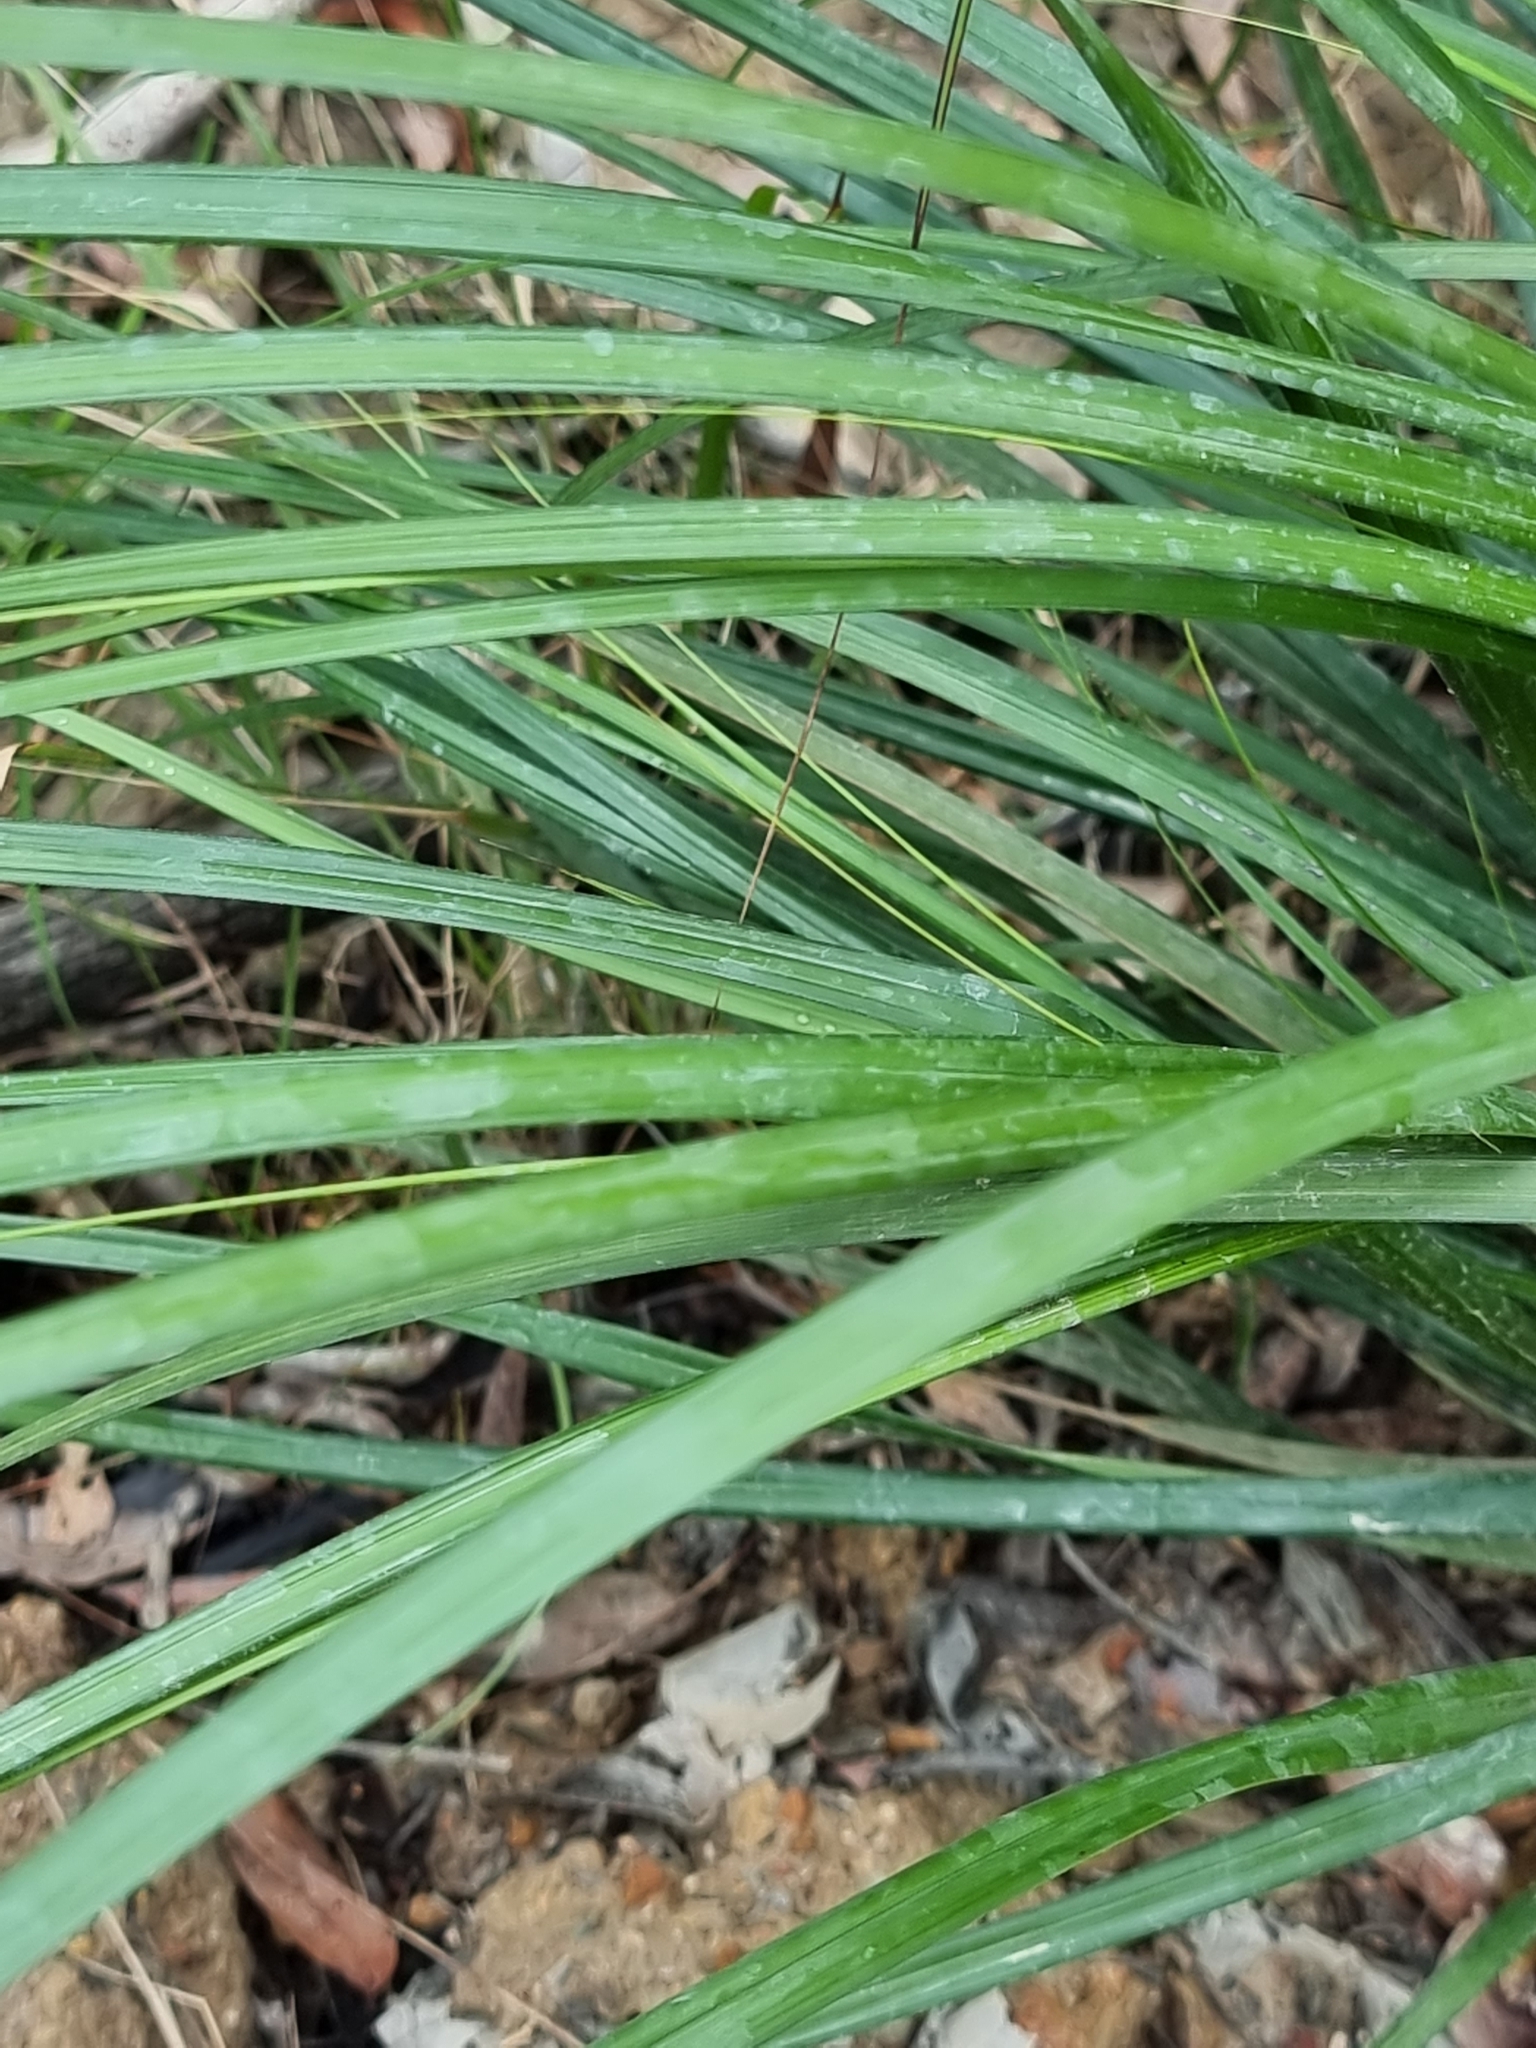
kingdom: Plantae
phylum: Tracheophyta
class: Liliopsida
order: Poales
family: Cyperaceae
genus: Gahnia
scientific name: Gahnia aspera
